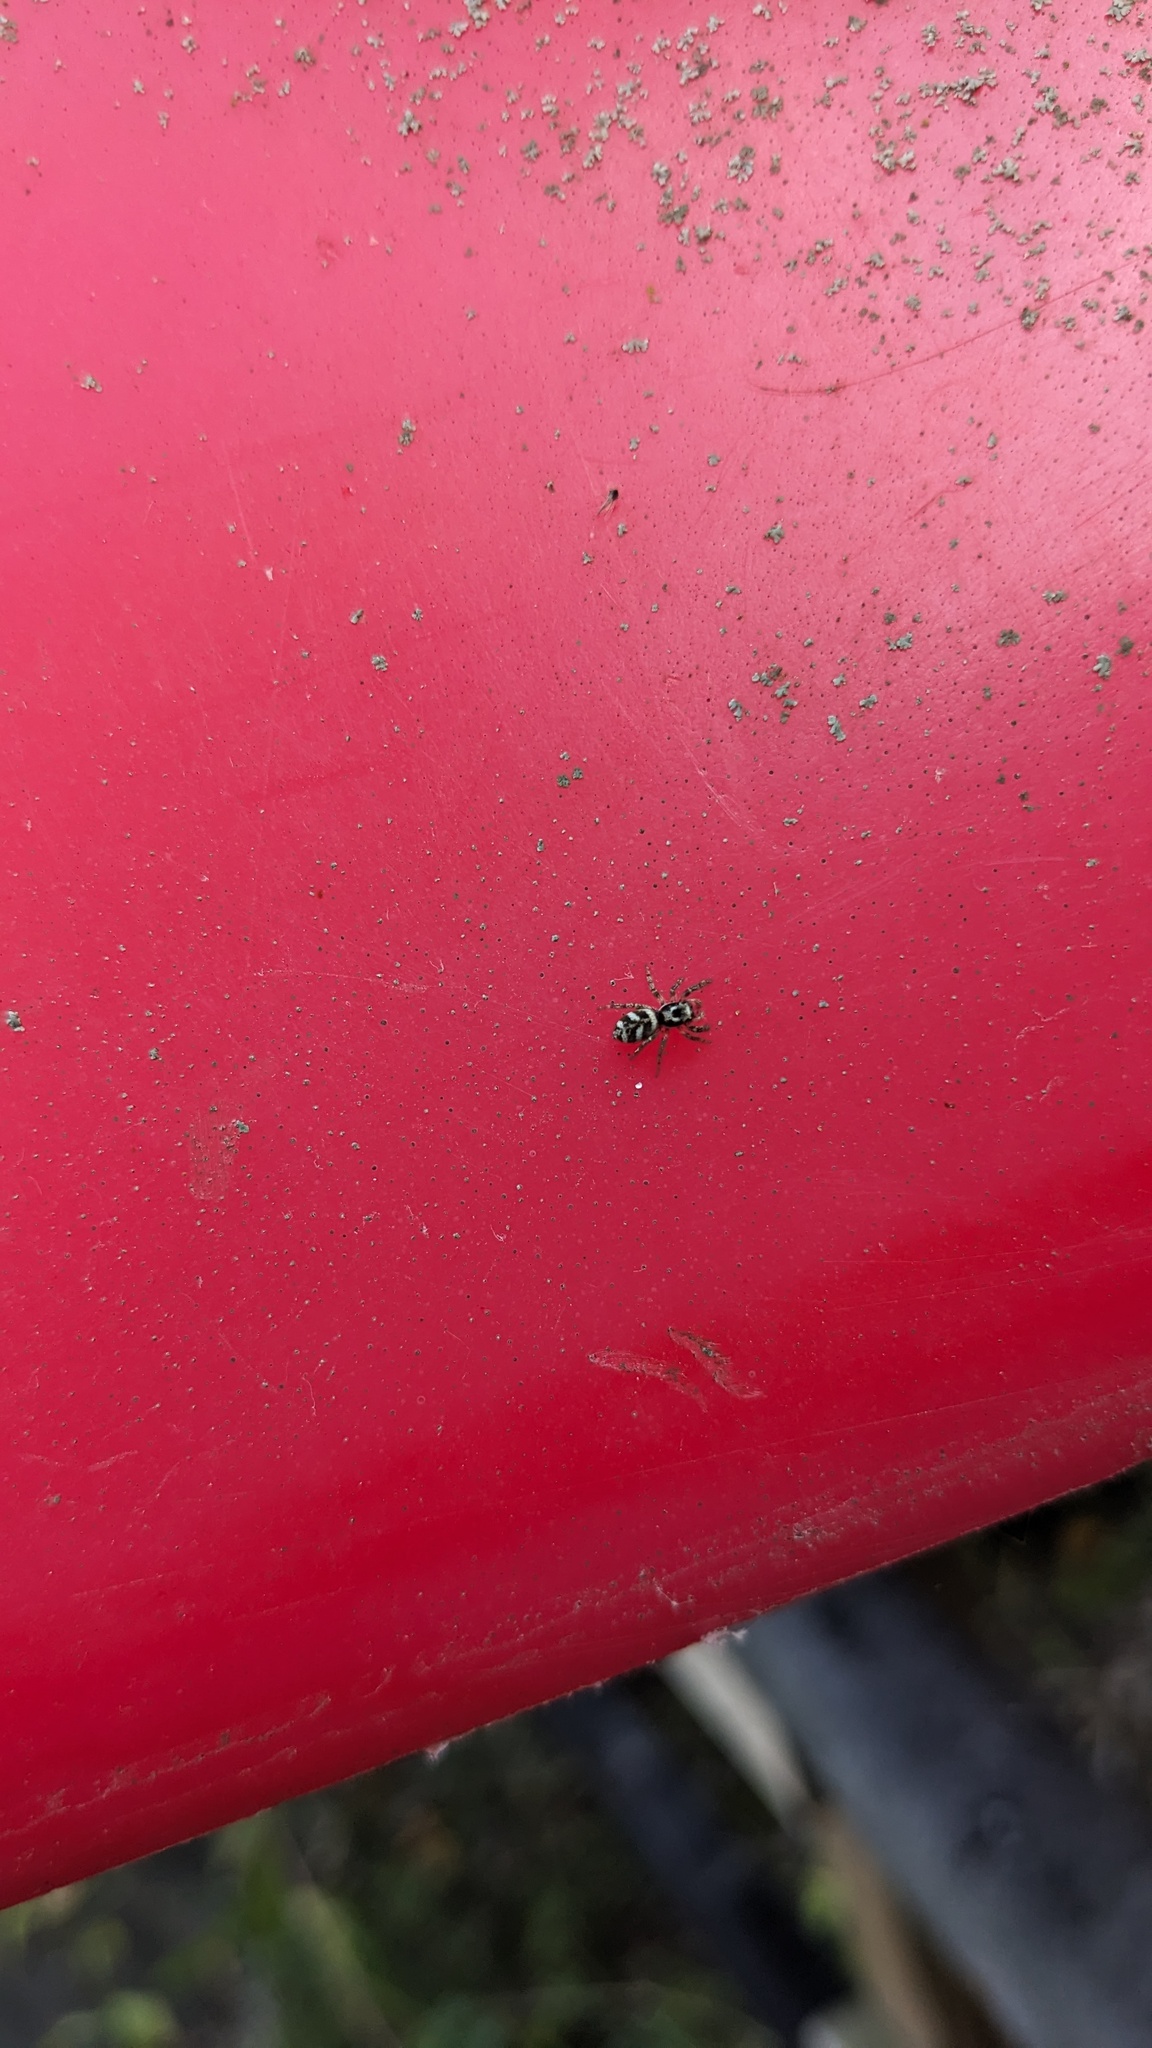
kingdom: Animalia
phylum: Arthropoda
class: Arachnida
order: Araneae
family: Salticidae
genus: Salticus
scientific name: Salticus scenicus
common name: Zebra jumper
